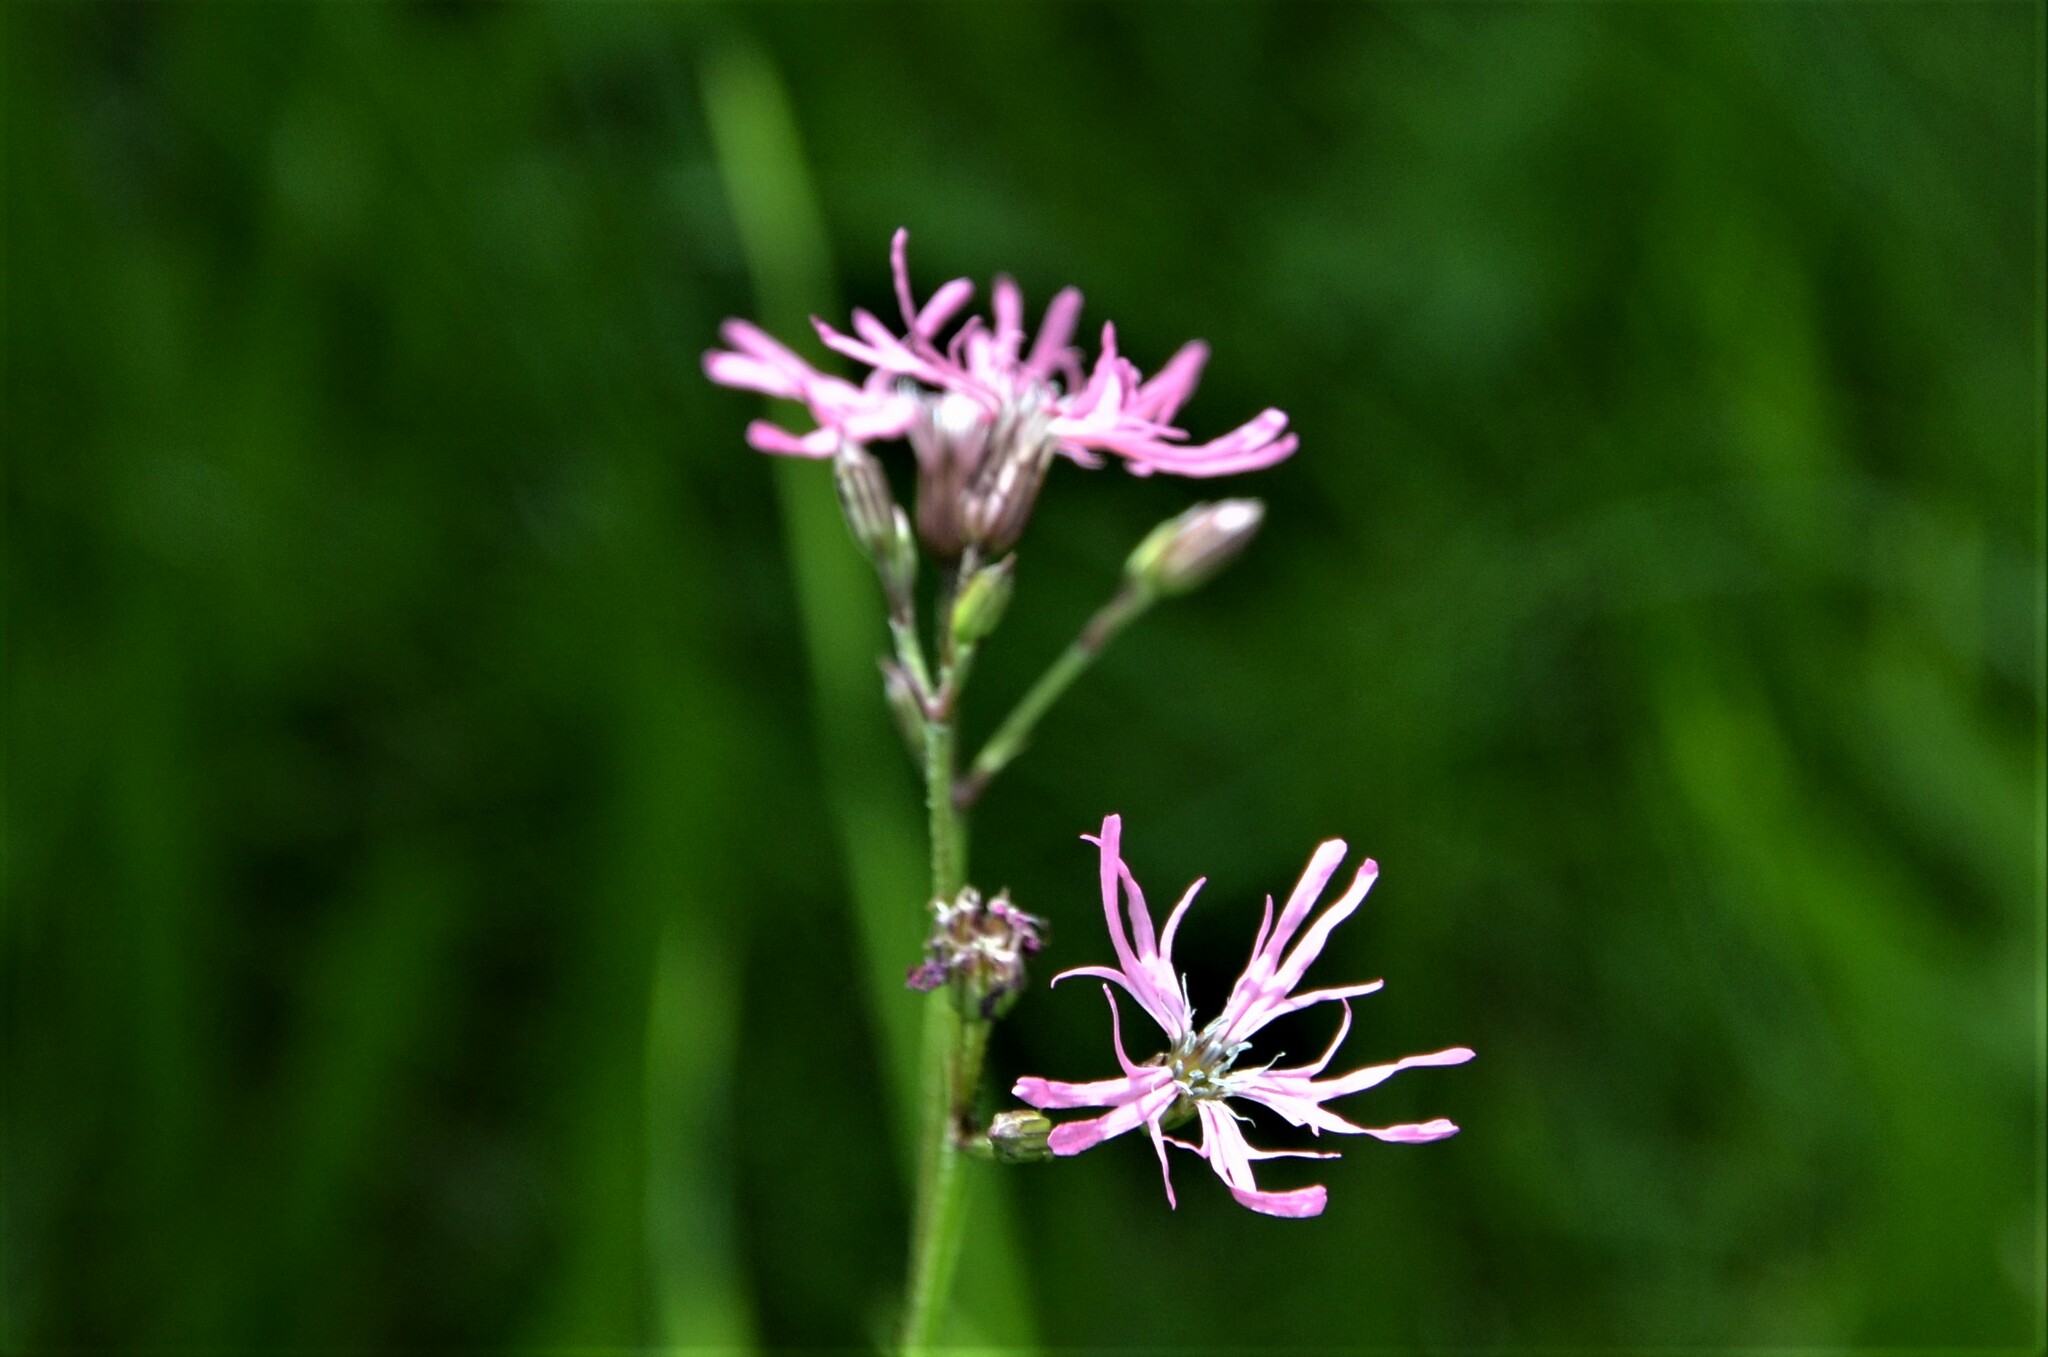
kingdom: Plantae
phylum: Tracheophyta
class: Magnoliopsida
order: Caryophyllales
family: Caryophyllaceae
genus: Silene
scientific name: Silene flos-cuculi
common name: Ragged-robin
